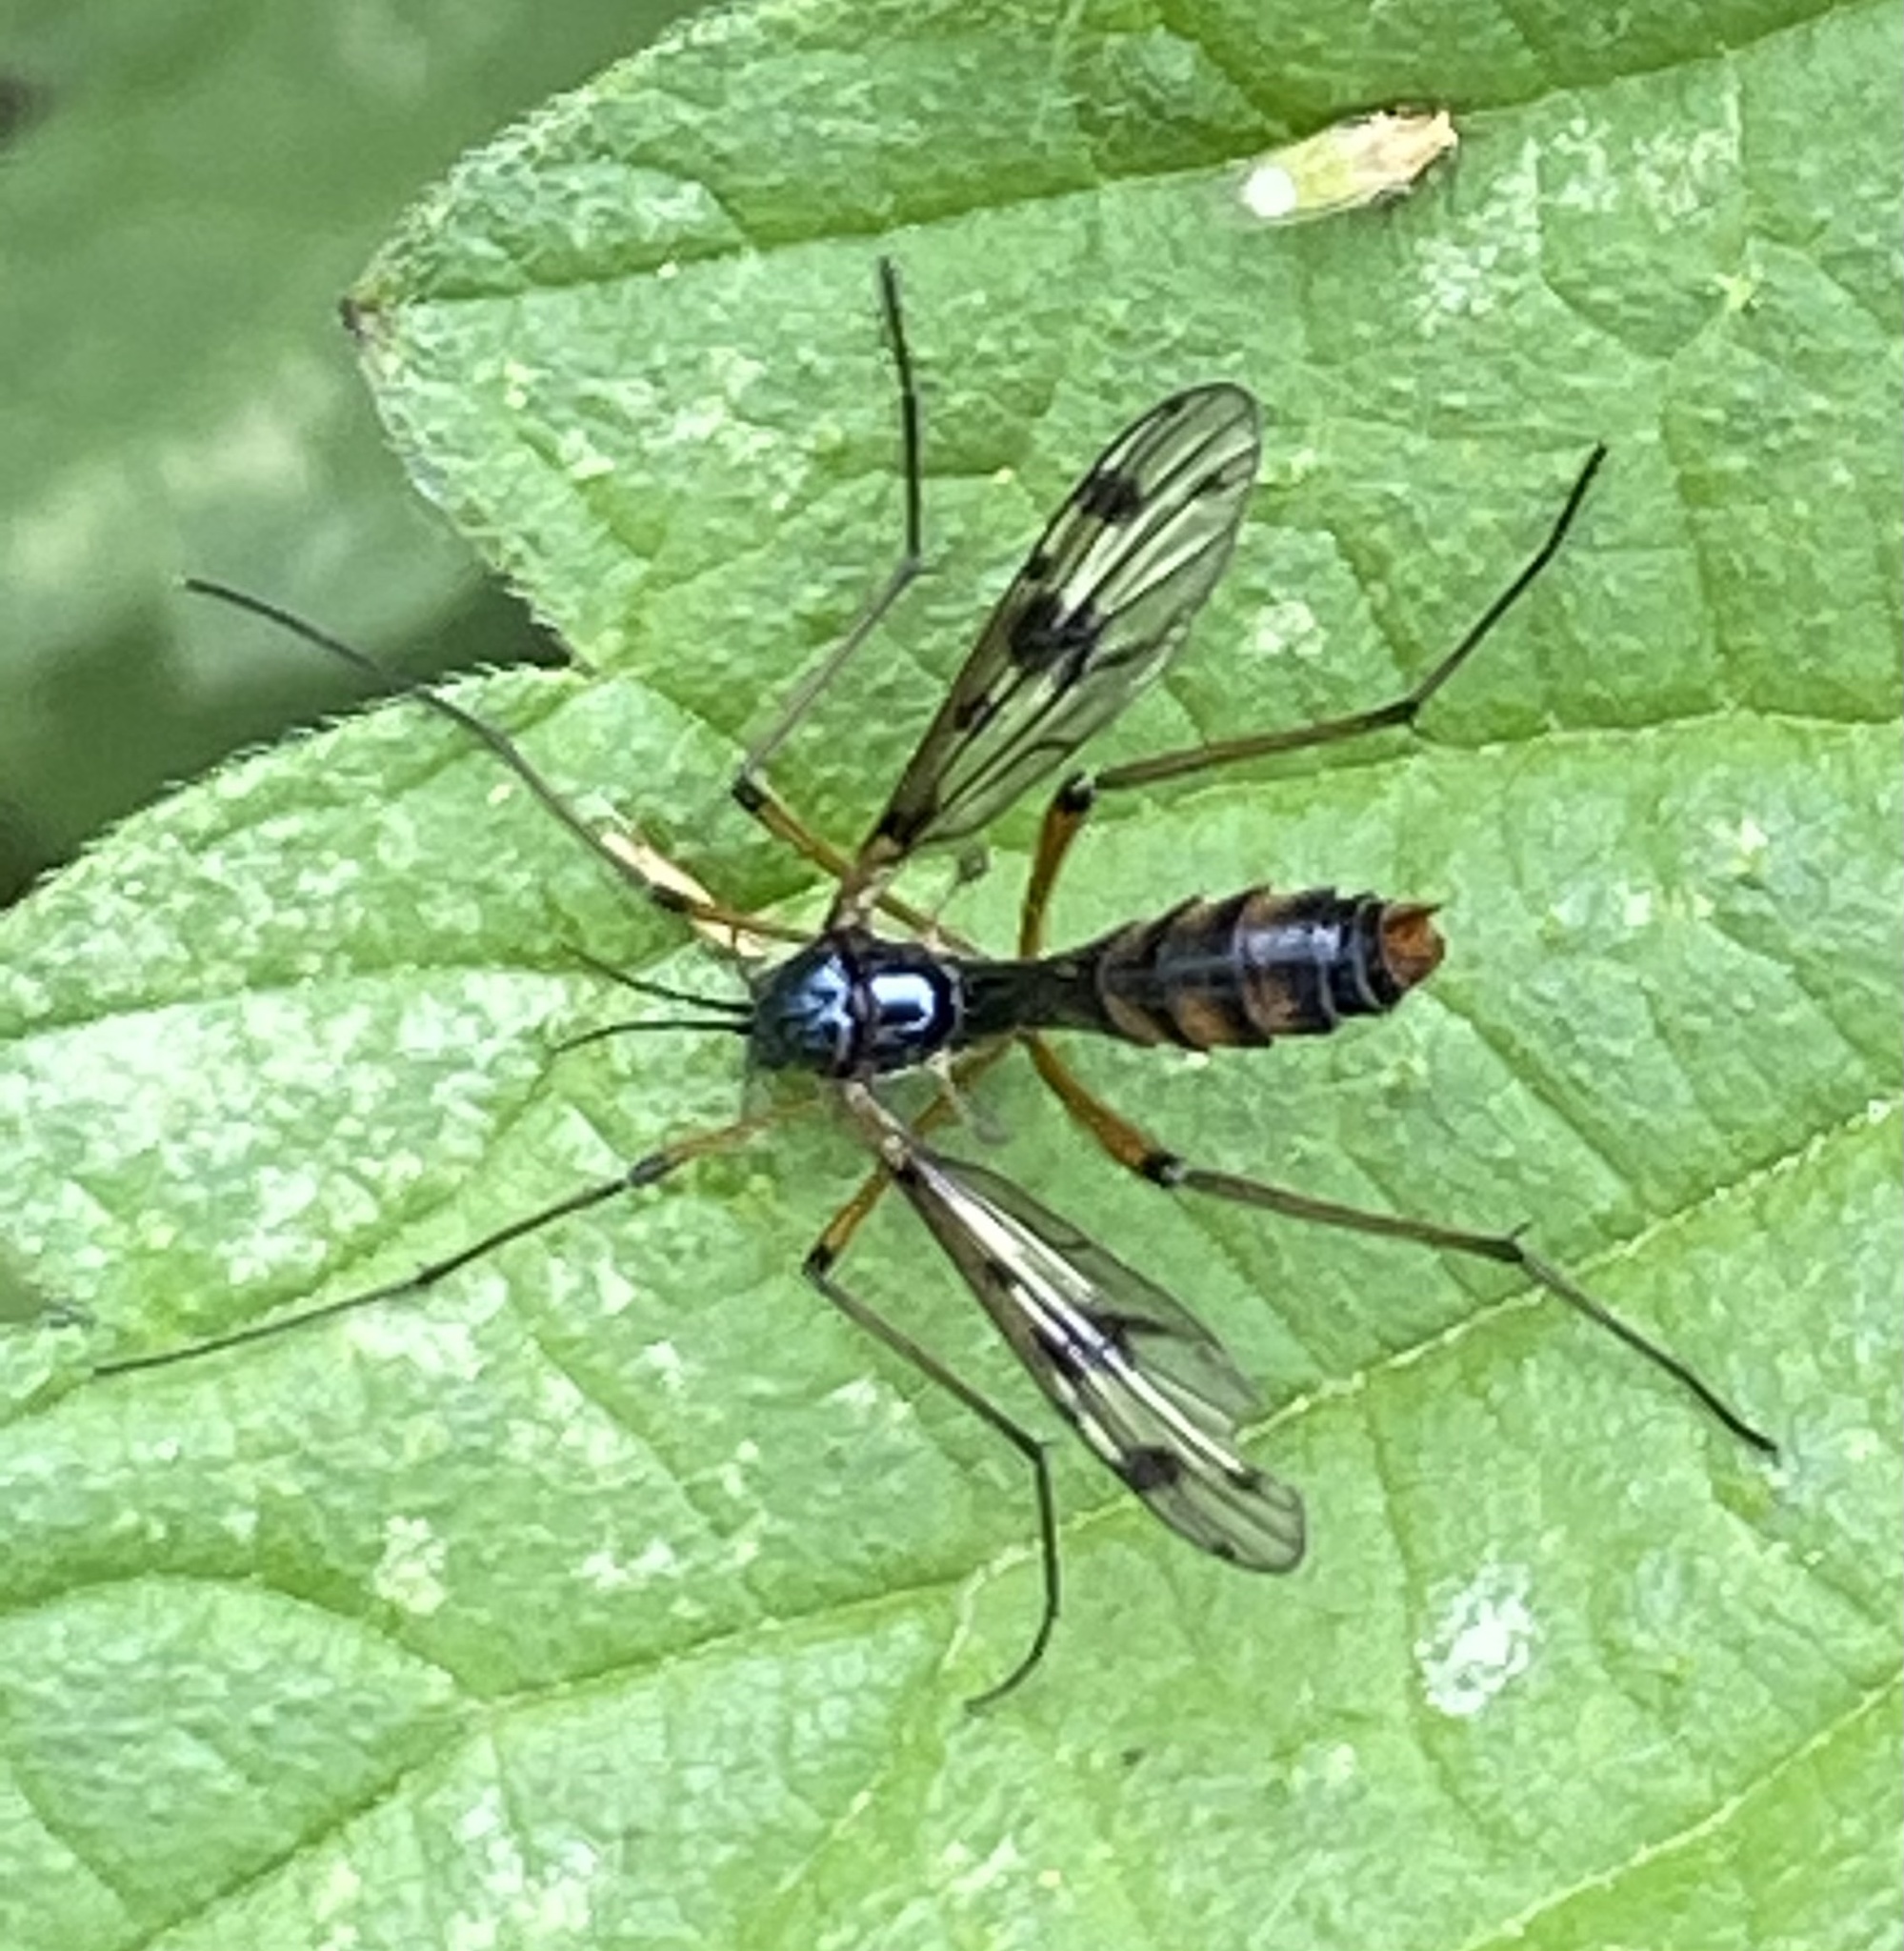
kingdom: Animalia
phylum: Arthropoda
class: Insecta
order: Diptera
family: Ptychopteridae
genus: Ptychoptera
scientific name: Ptychoptera contaminata
